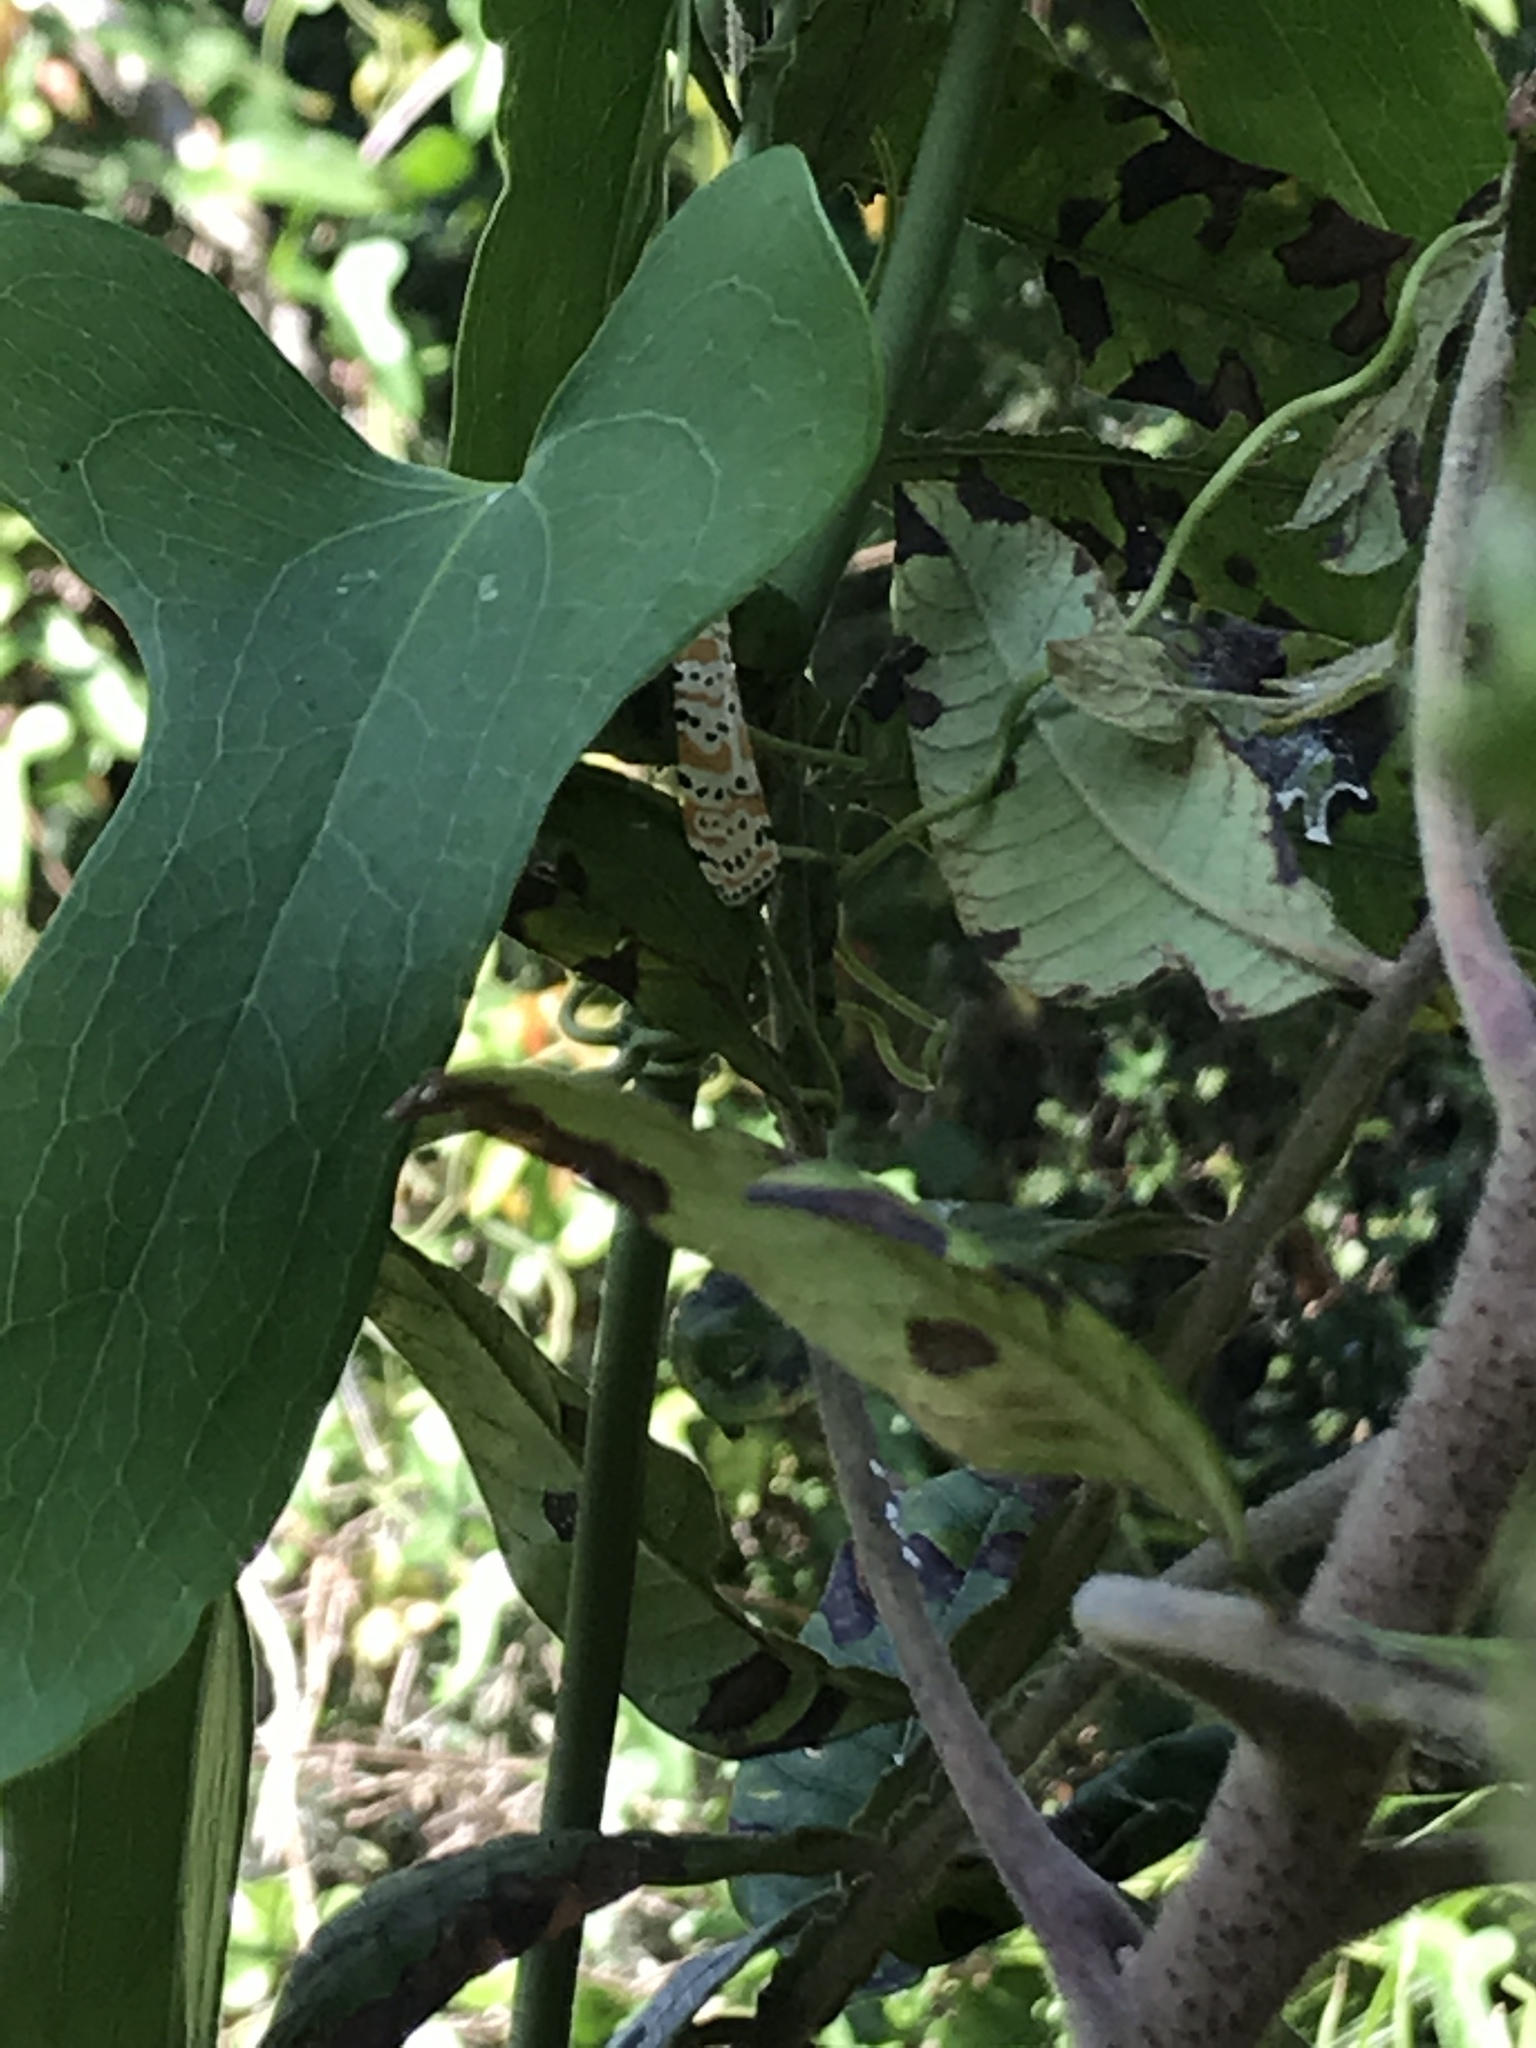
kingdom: Animalia
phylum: Arthropoda
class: Insecta
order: Lepidoptera
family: Erebidae
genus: Utetheisa
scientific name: Utetheisa ornatrix
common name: Beautiful utetheisa
